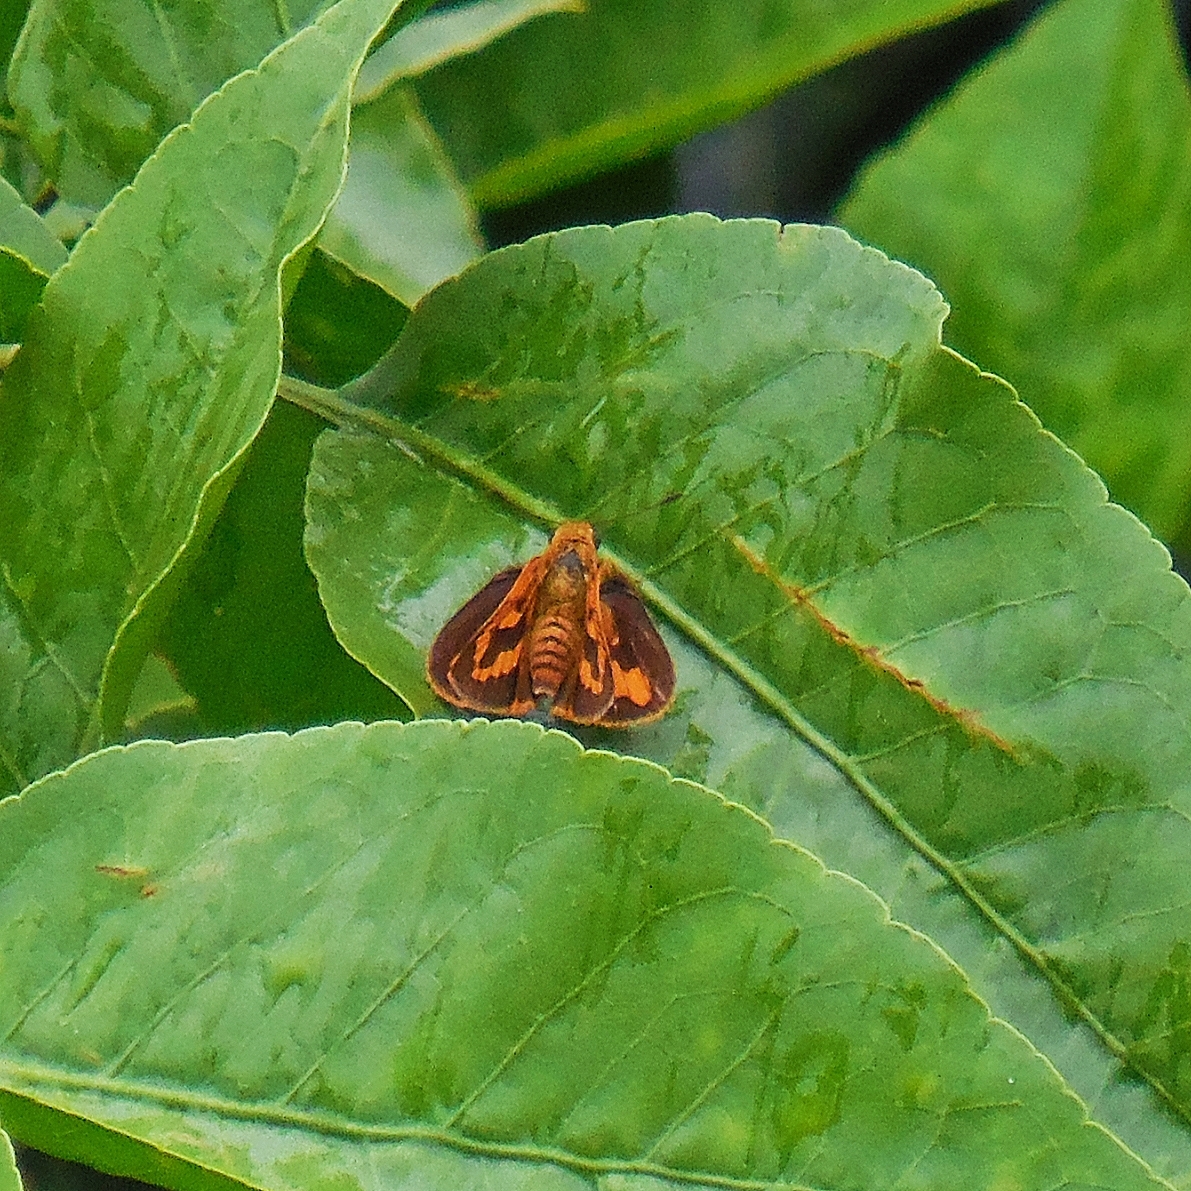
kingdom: Animalia
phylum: Arthropoda
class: Insecta
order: Lepidoptera
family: Hesperiidae
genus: Potanthus
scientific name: Potanthus omaha
